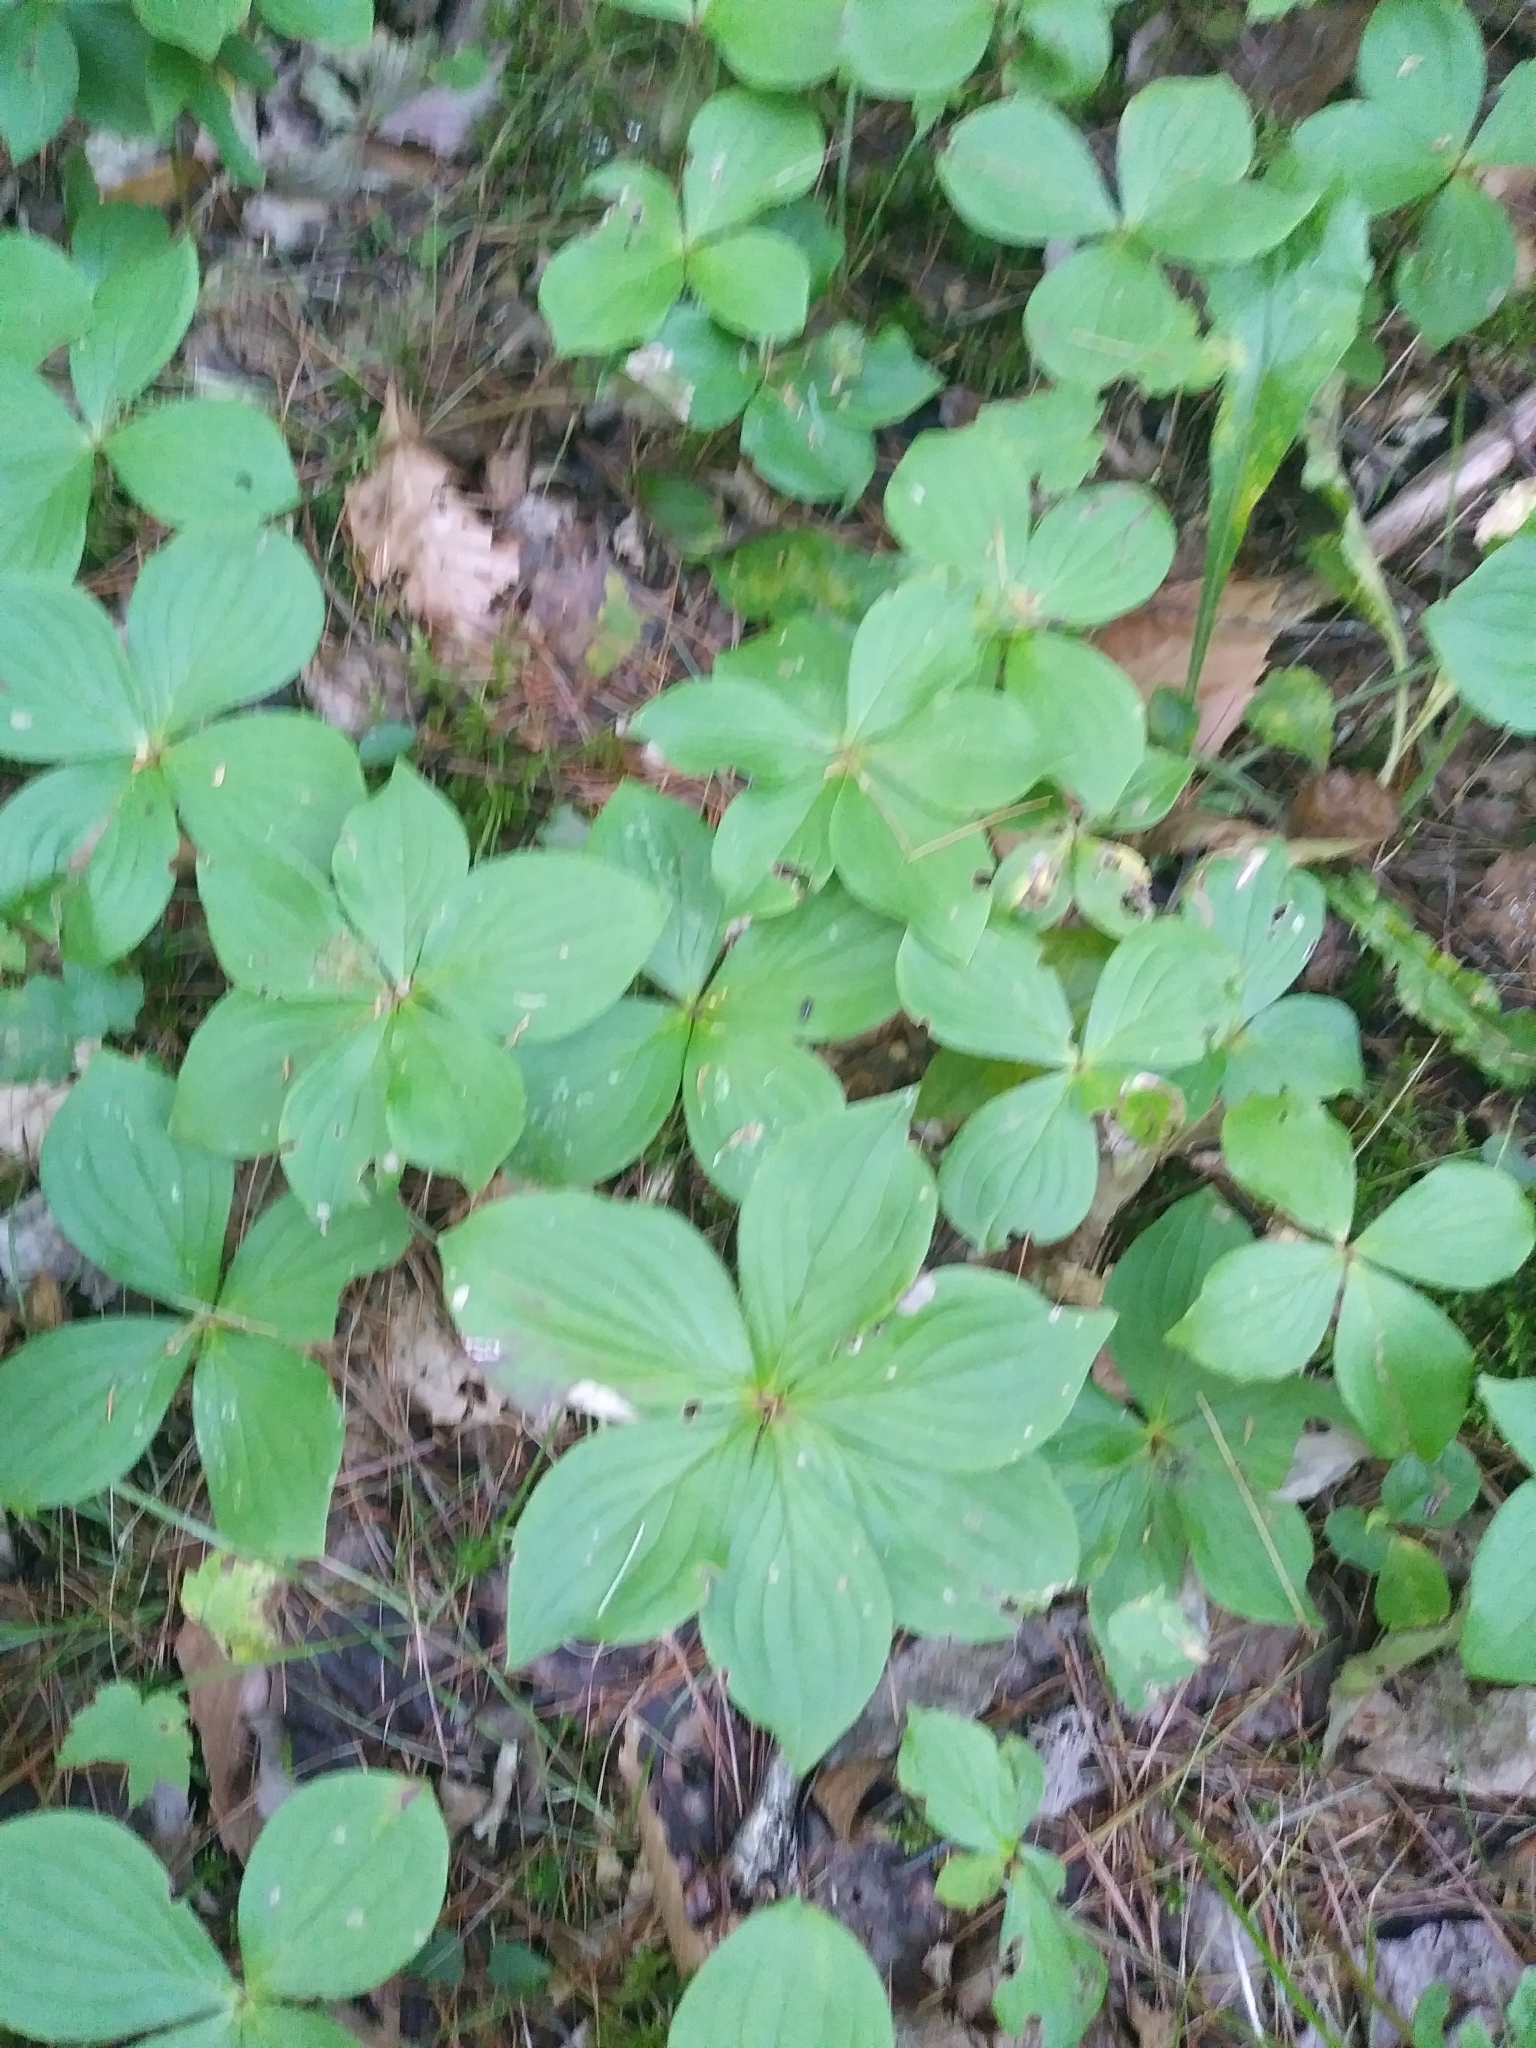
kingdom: Plantae
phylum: Tracheophyta
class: Magnoliopsida
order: Cornales
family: Cornaceae
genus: Cornus
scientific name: Cornus canadensis
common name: Creeping dogwood
